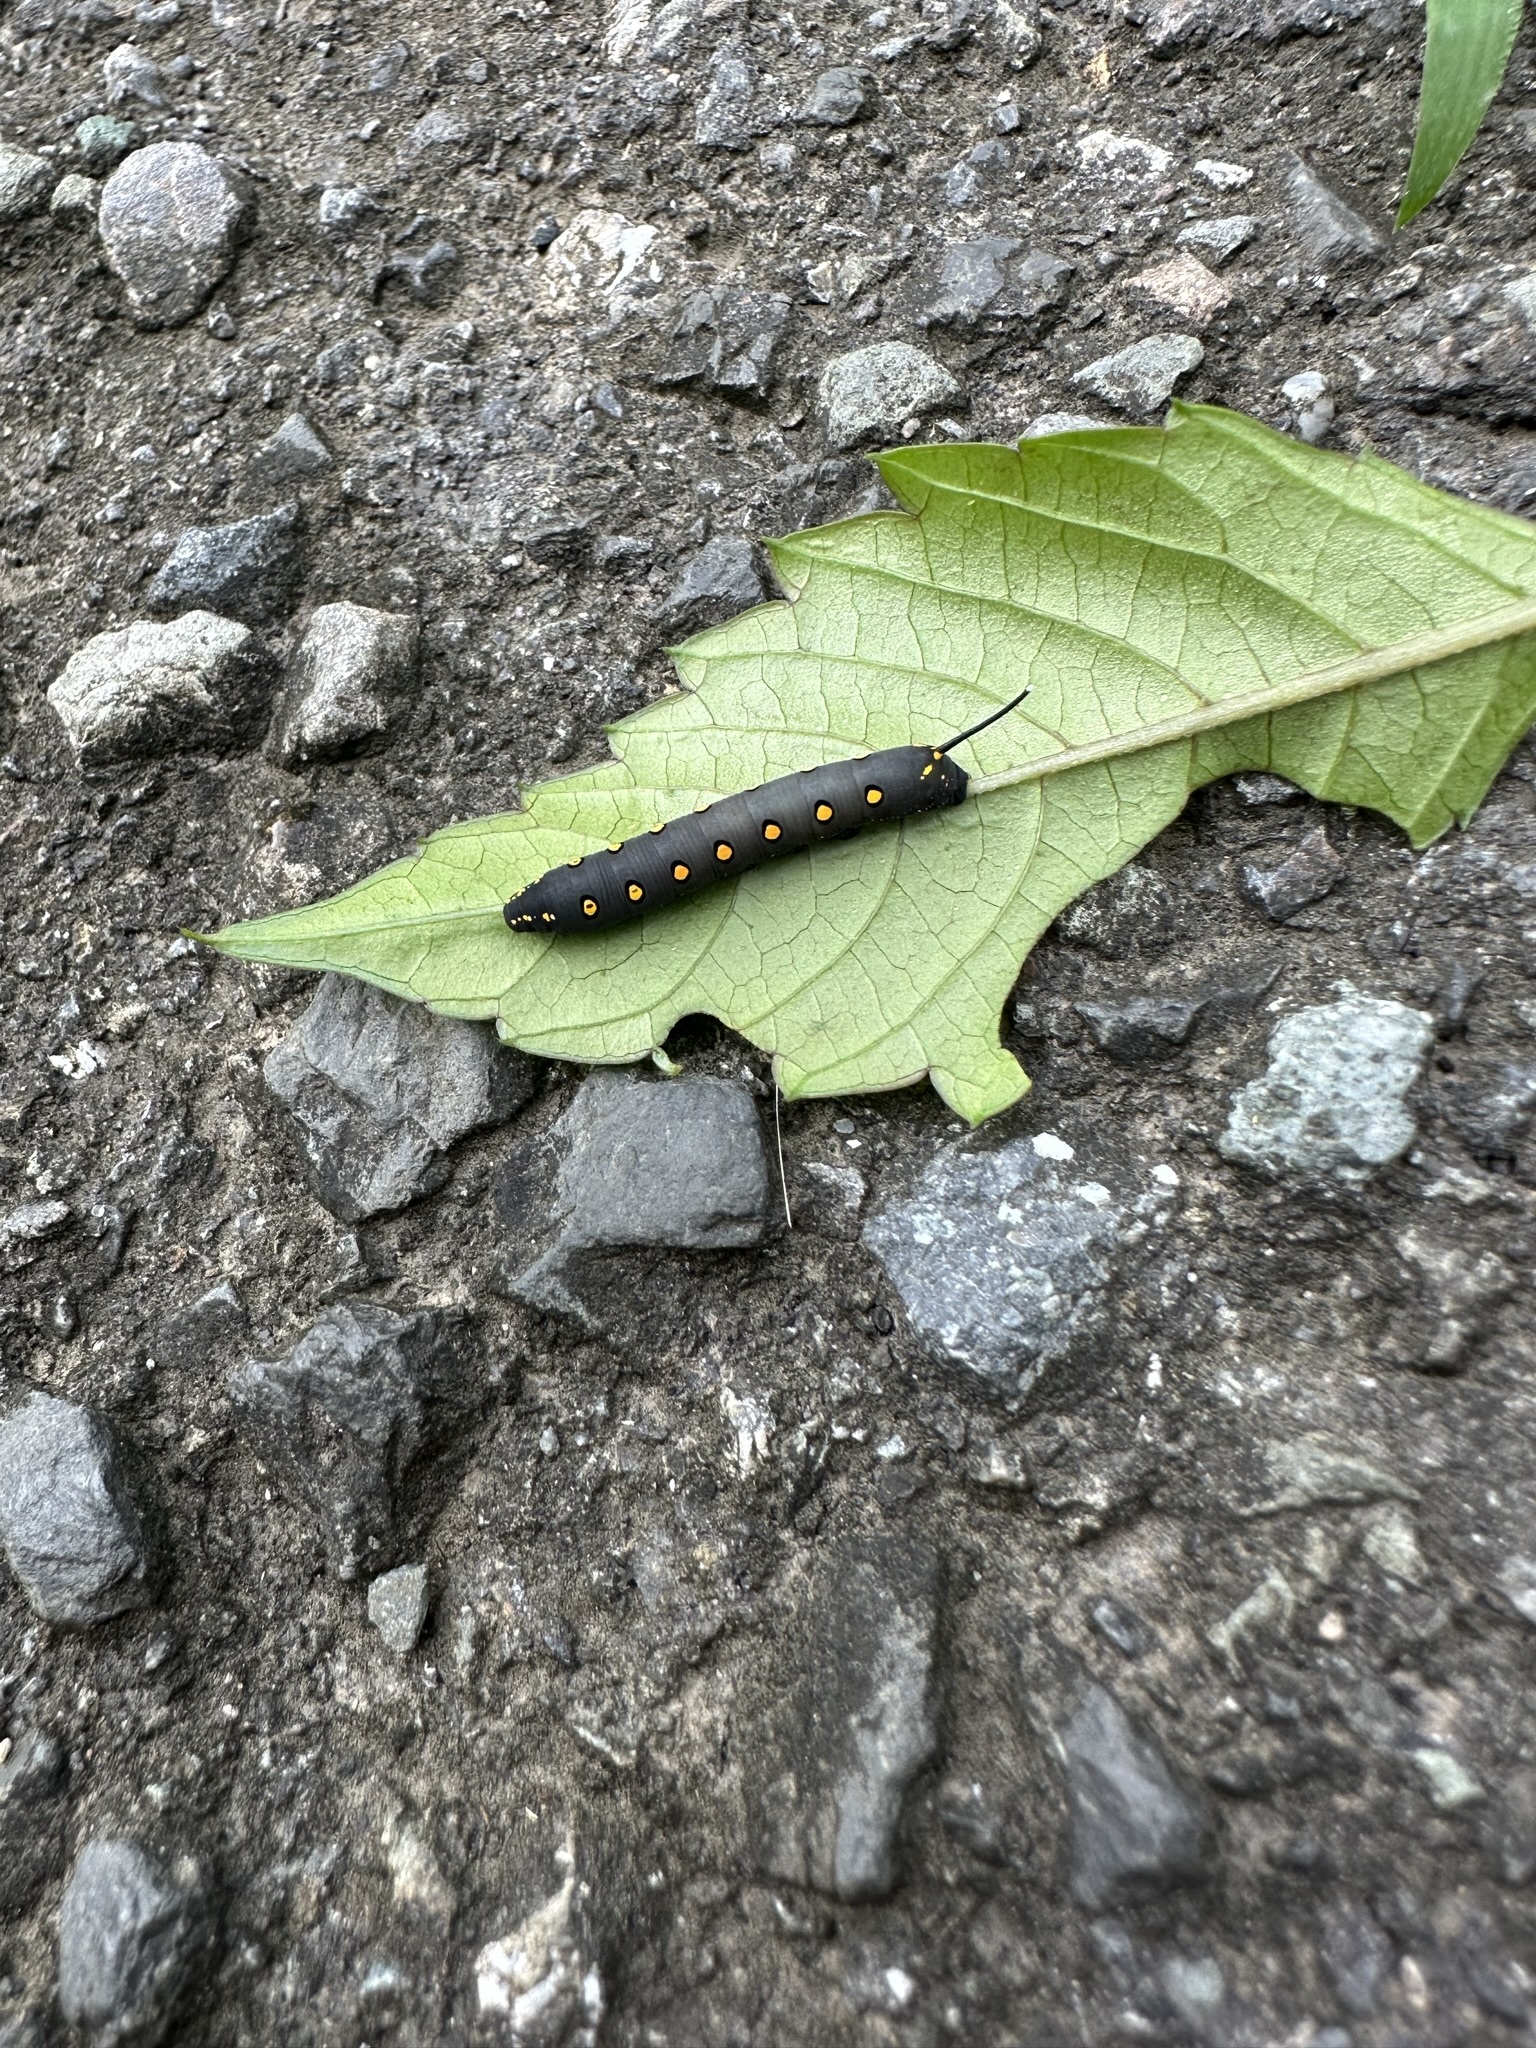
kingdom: Animalia
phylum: Arthropoda
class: Insecta
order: Lepidoptera
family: Sphingidae
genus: Theretra
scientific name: Theretra oldenlandiae
